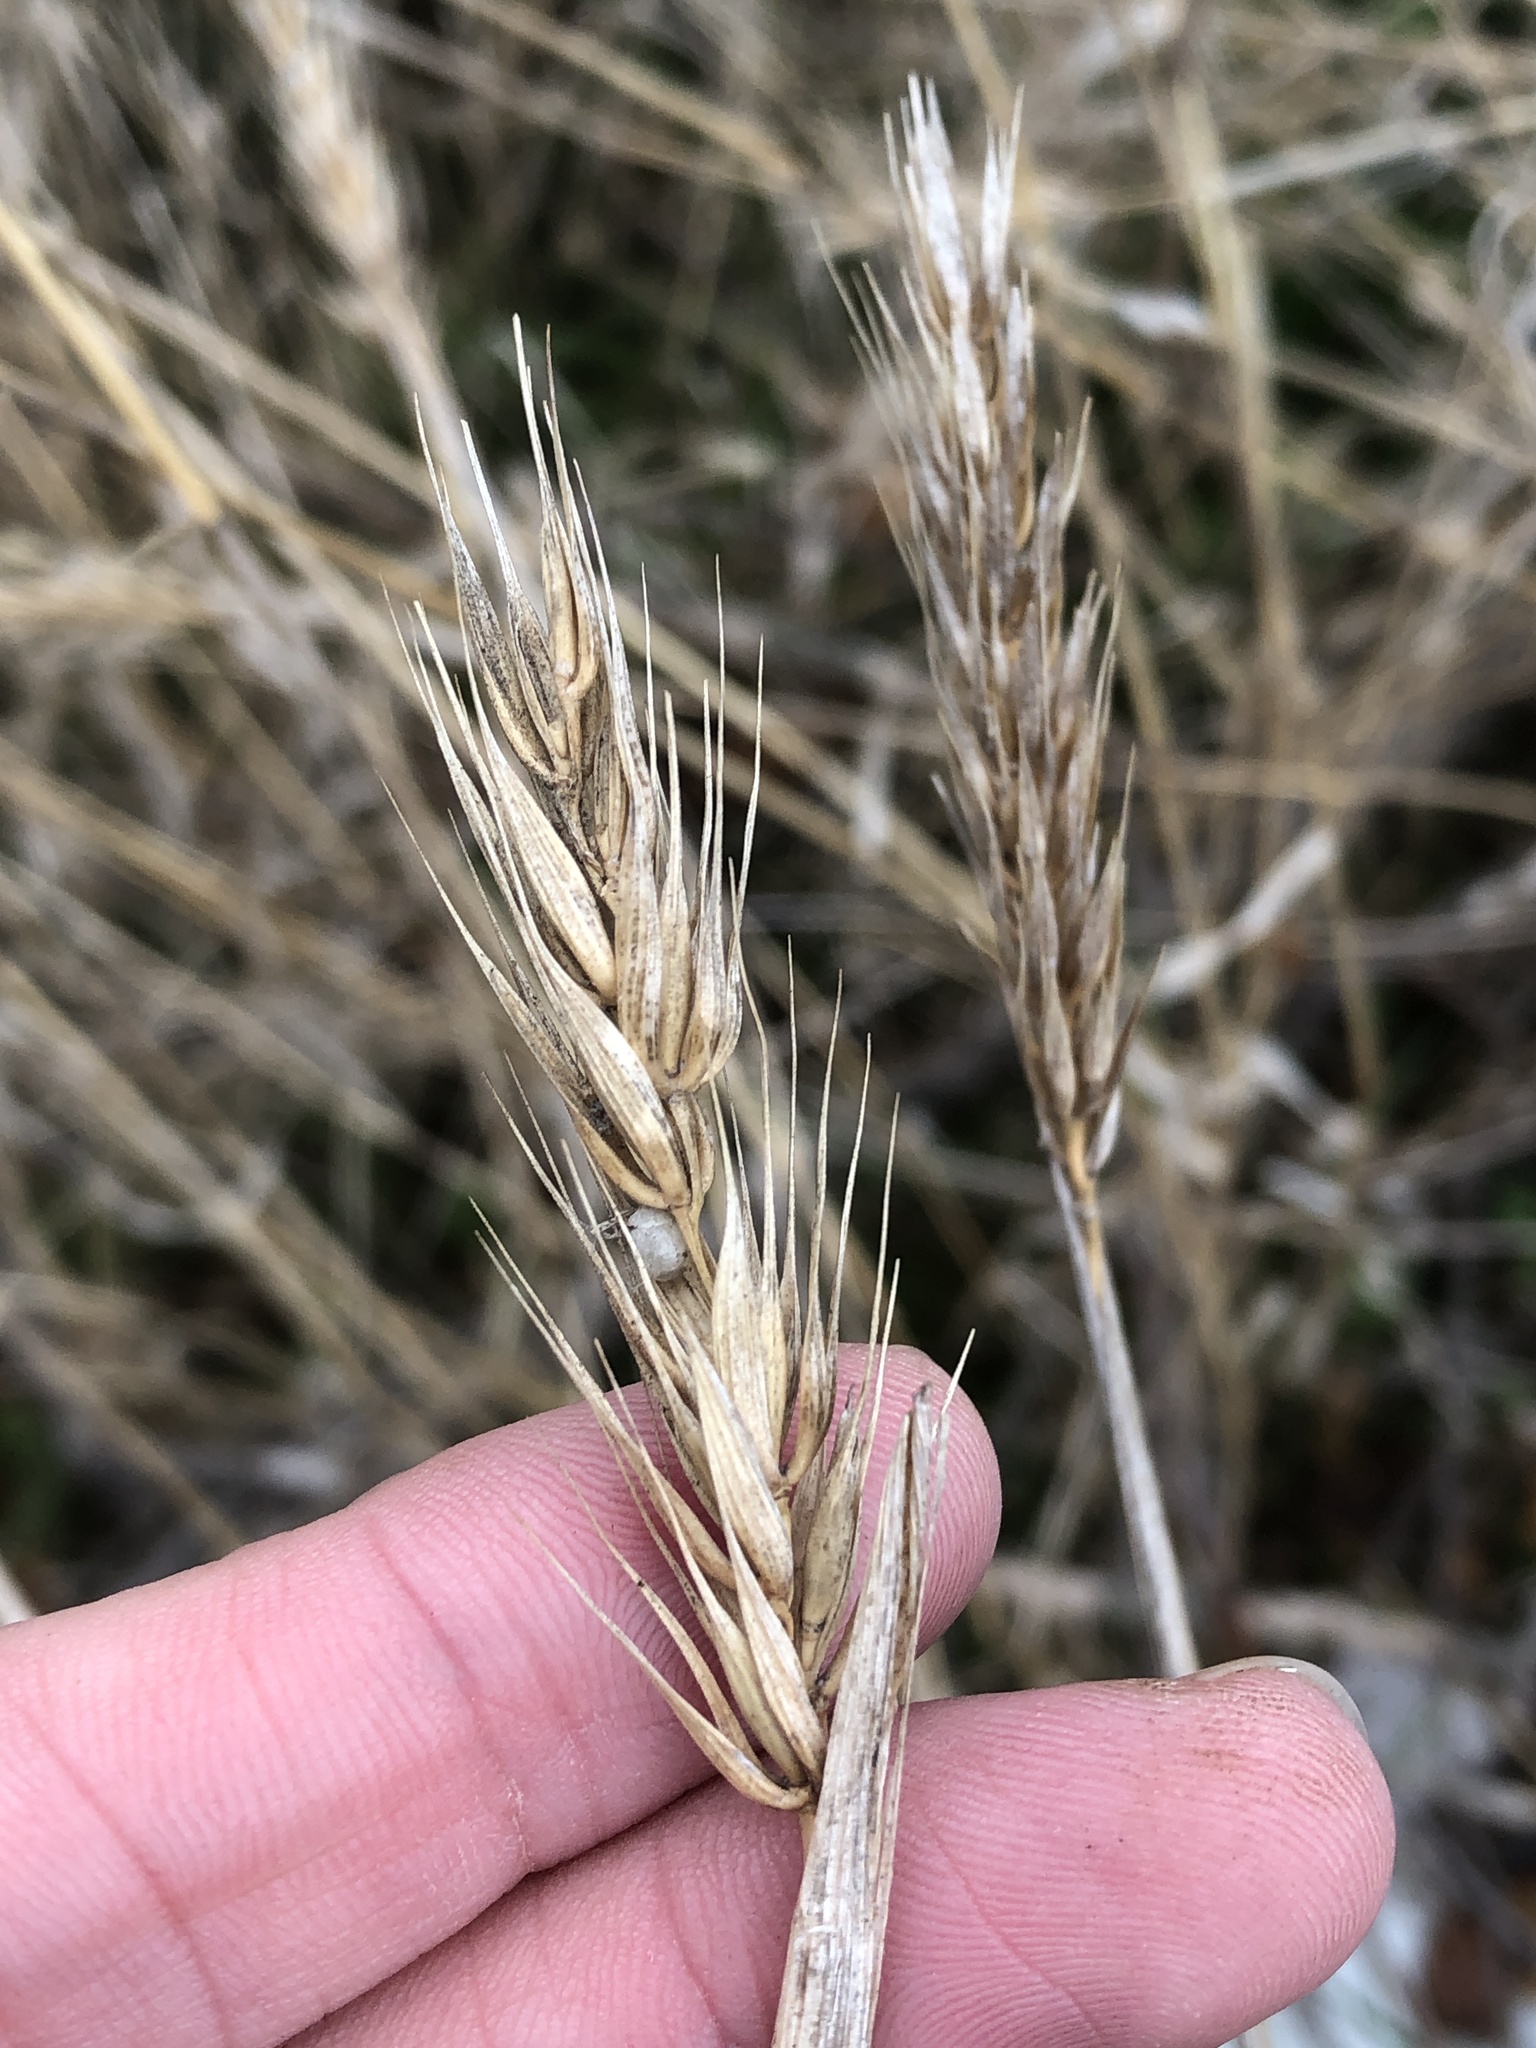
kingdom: Plantae
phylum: Tracheophyta
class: Liliopsida
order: Poales
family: Poaceae
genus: Elymus
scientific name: Elymus virginicus
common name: Common eastern wildrye
